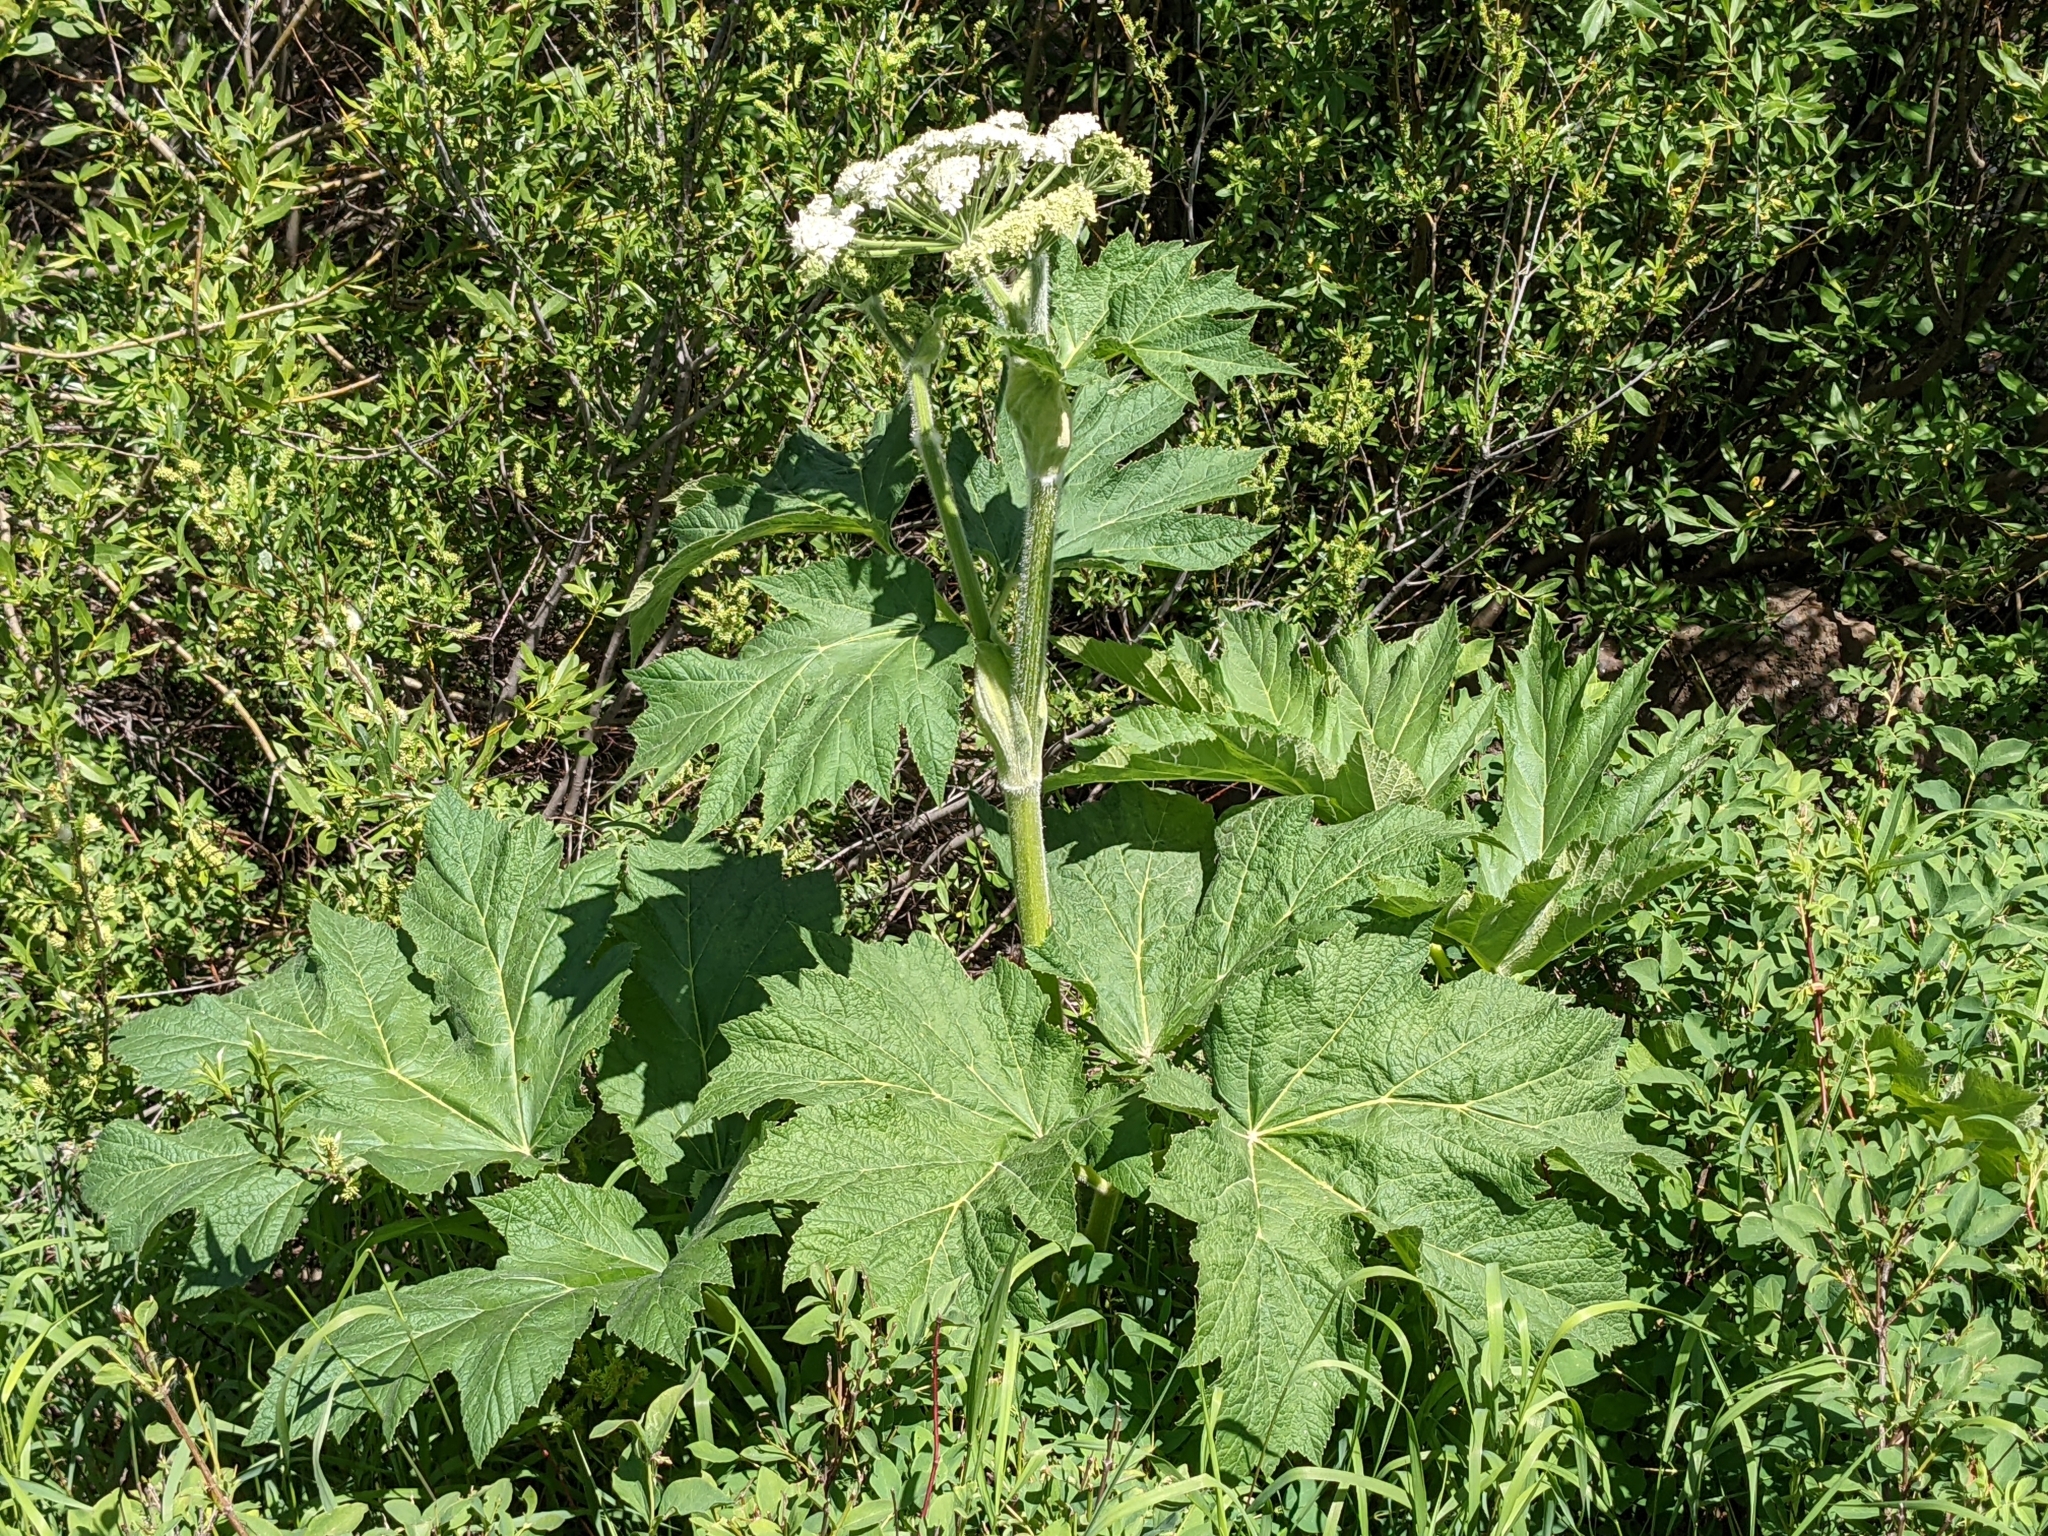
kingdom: Plantae
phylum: Tracheophyta
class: Magnoliopsida
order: Apiales
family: Apiaceae
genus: Heracleum
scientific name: Heracleum maximum
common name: American cow parsnip
